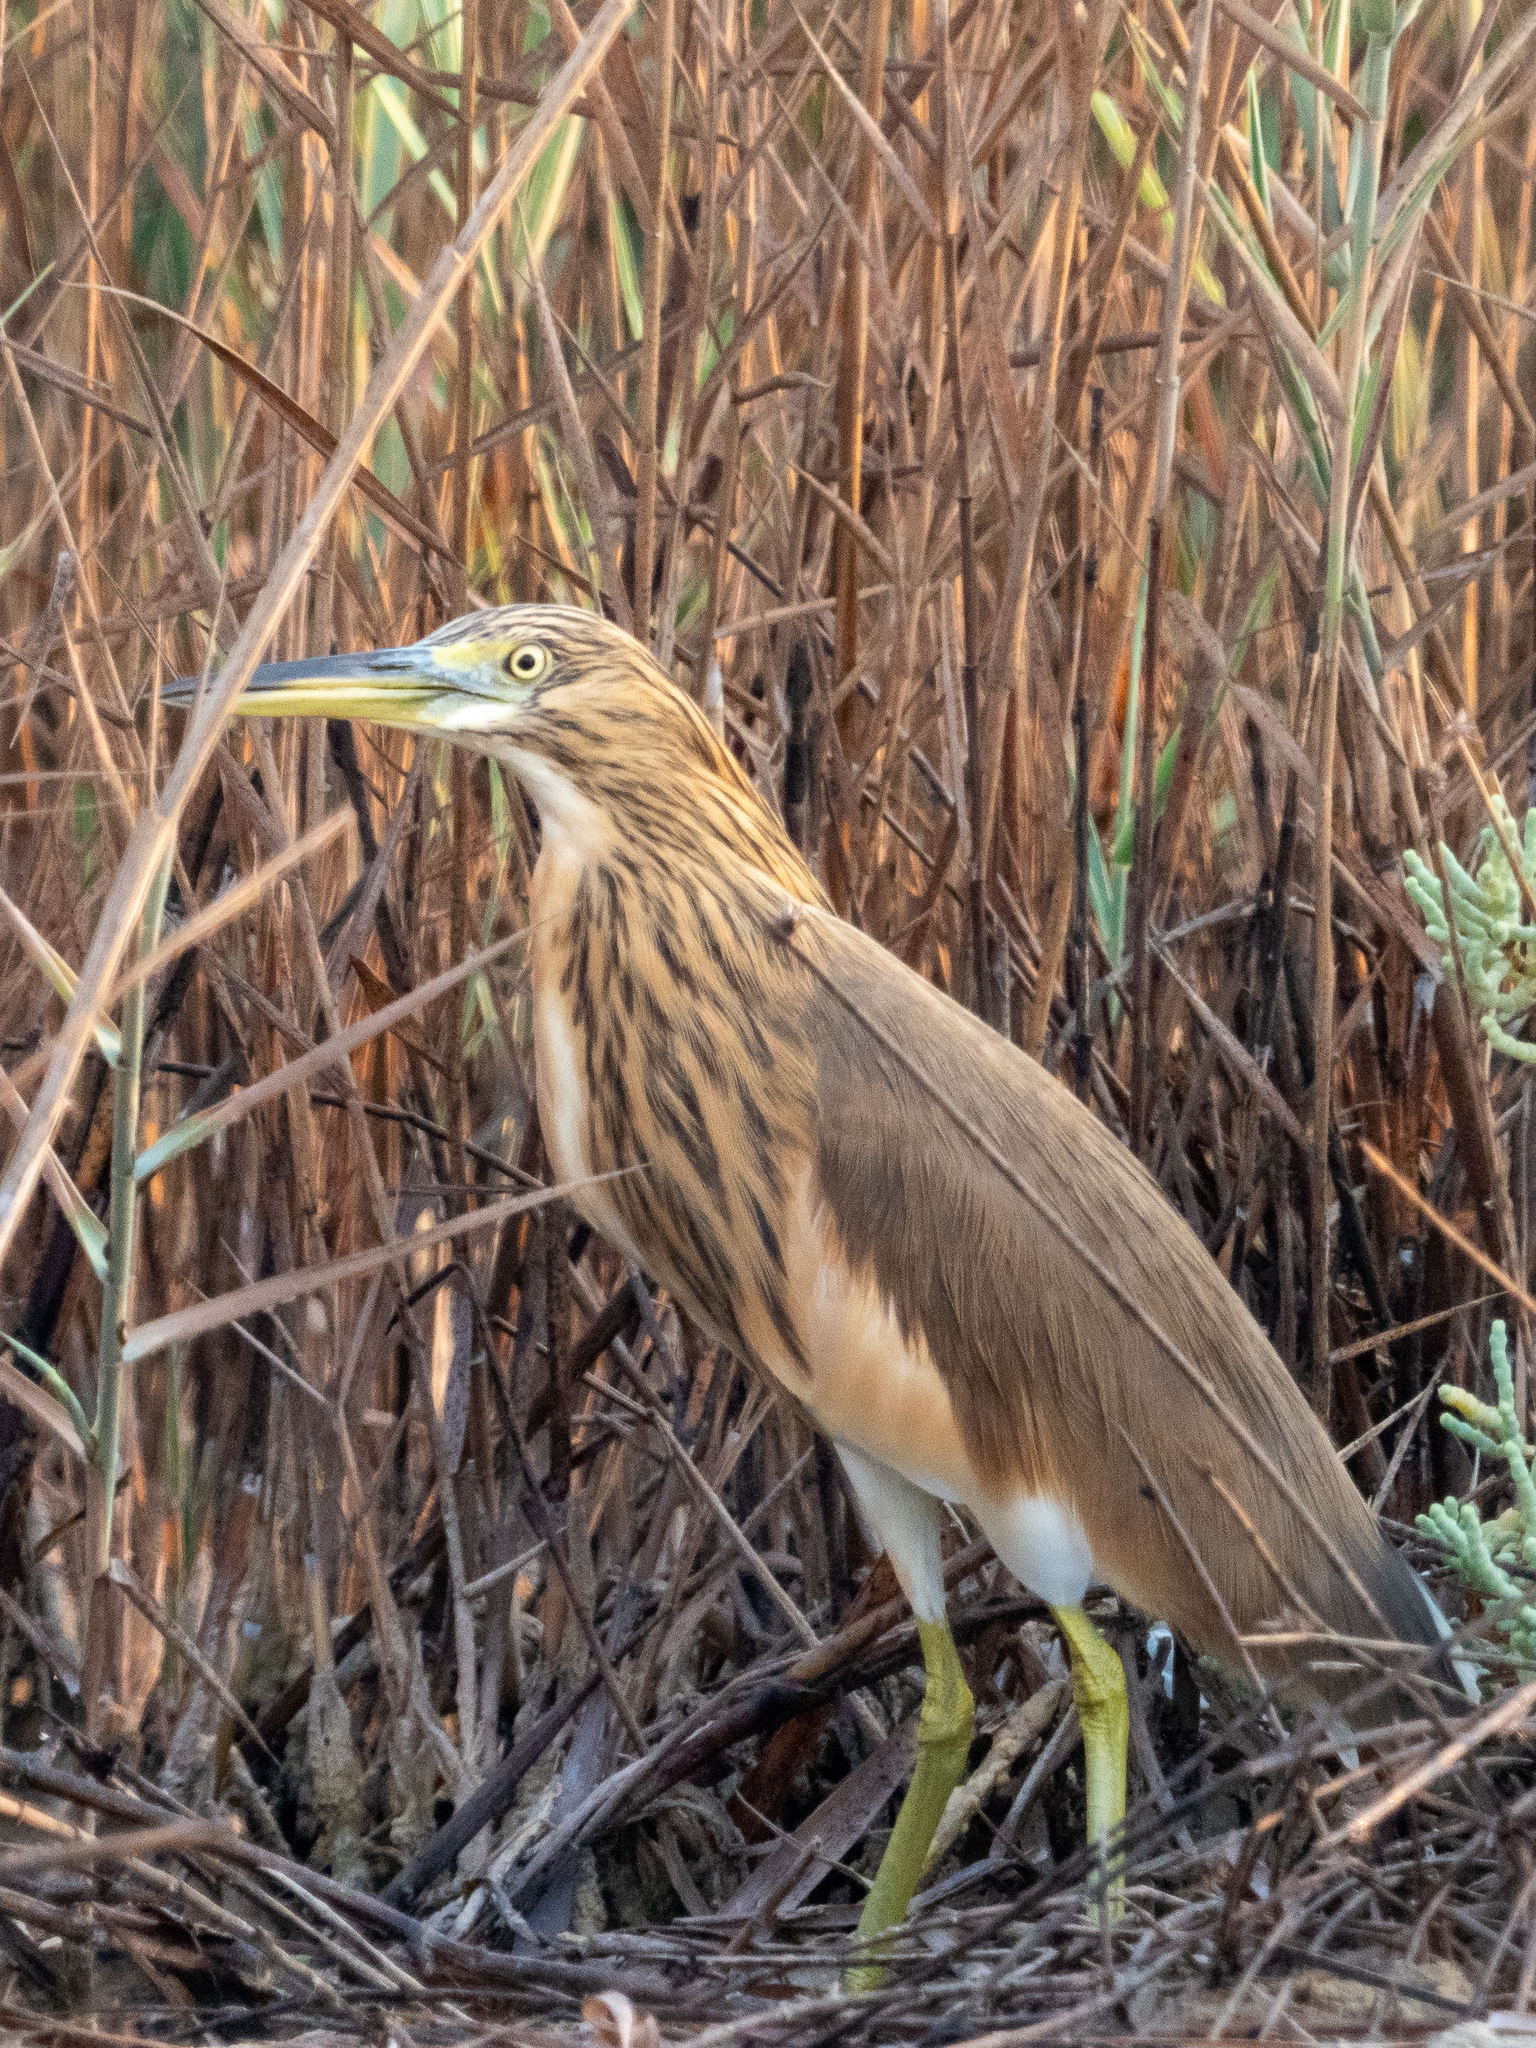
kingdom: Animalia
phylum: Chordata
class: Aves
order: Pelecaniformes
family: Ardeidae
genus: Ardeola
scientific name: Ardeola ralloides
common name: Squacco heron
